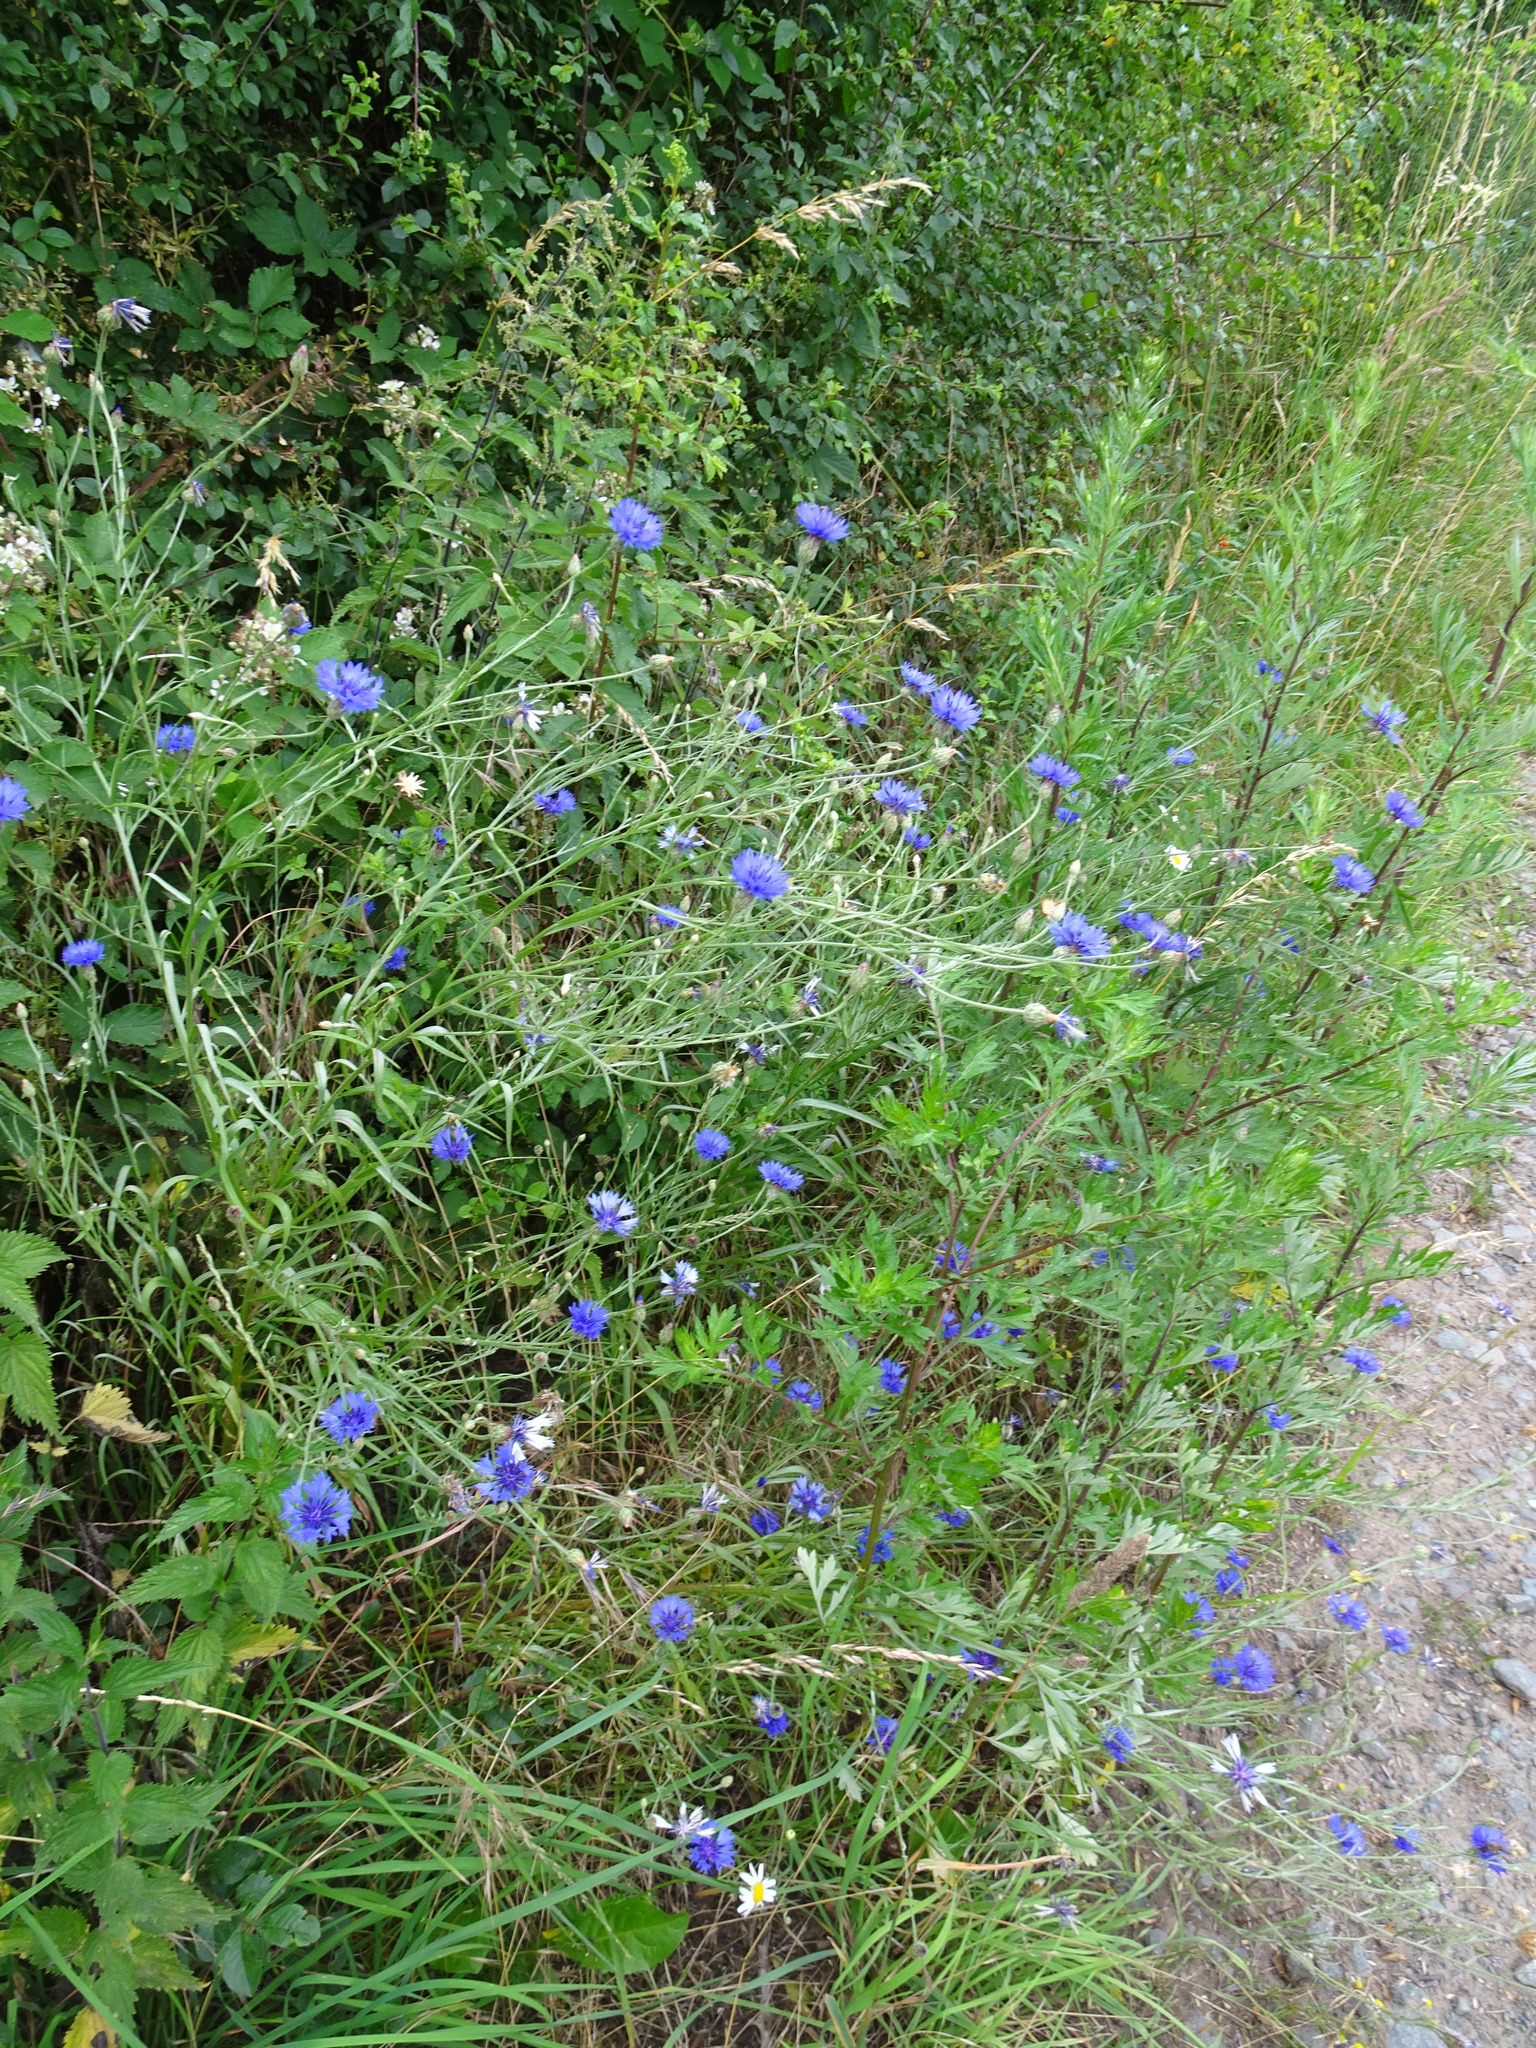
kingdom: Plantae
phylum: Tracheophyta
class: Magnoliopsida
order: Asterales
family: Asteraceae
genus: Centaurea
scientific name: Centaurea cyanus
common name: Cornflower
